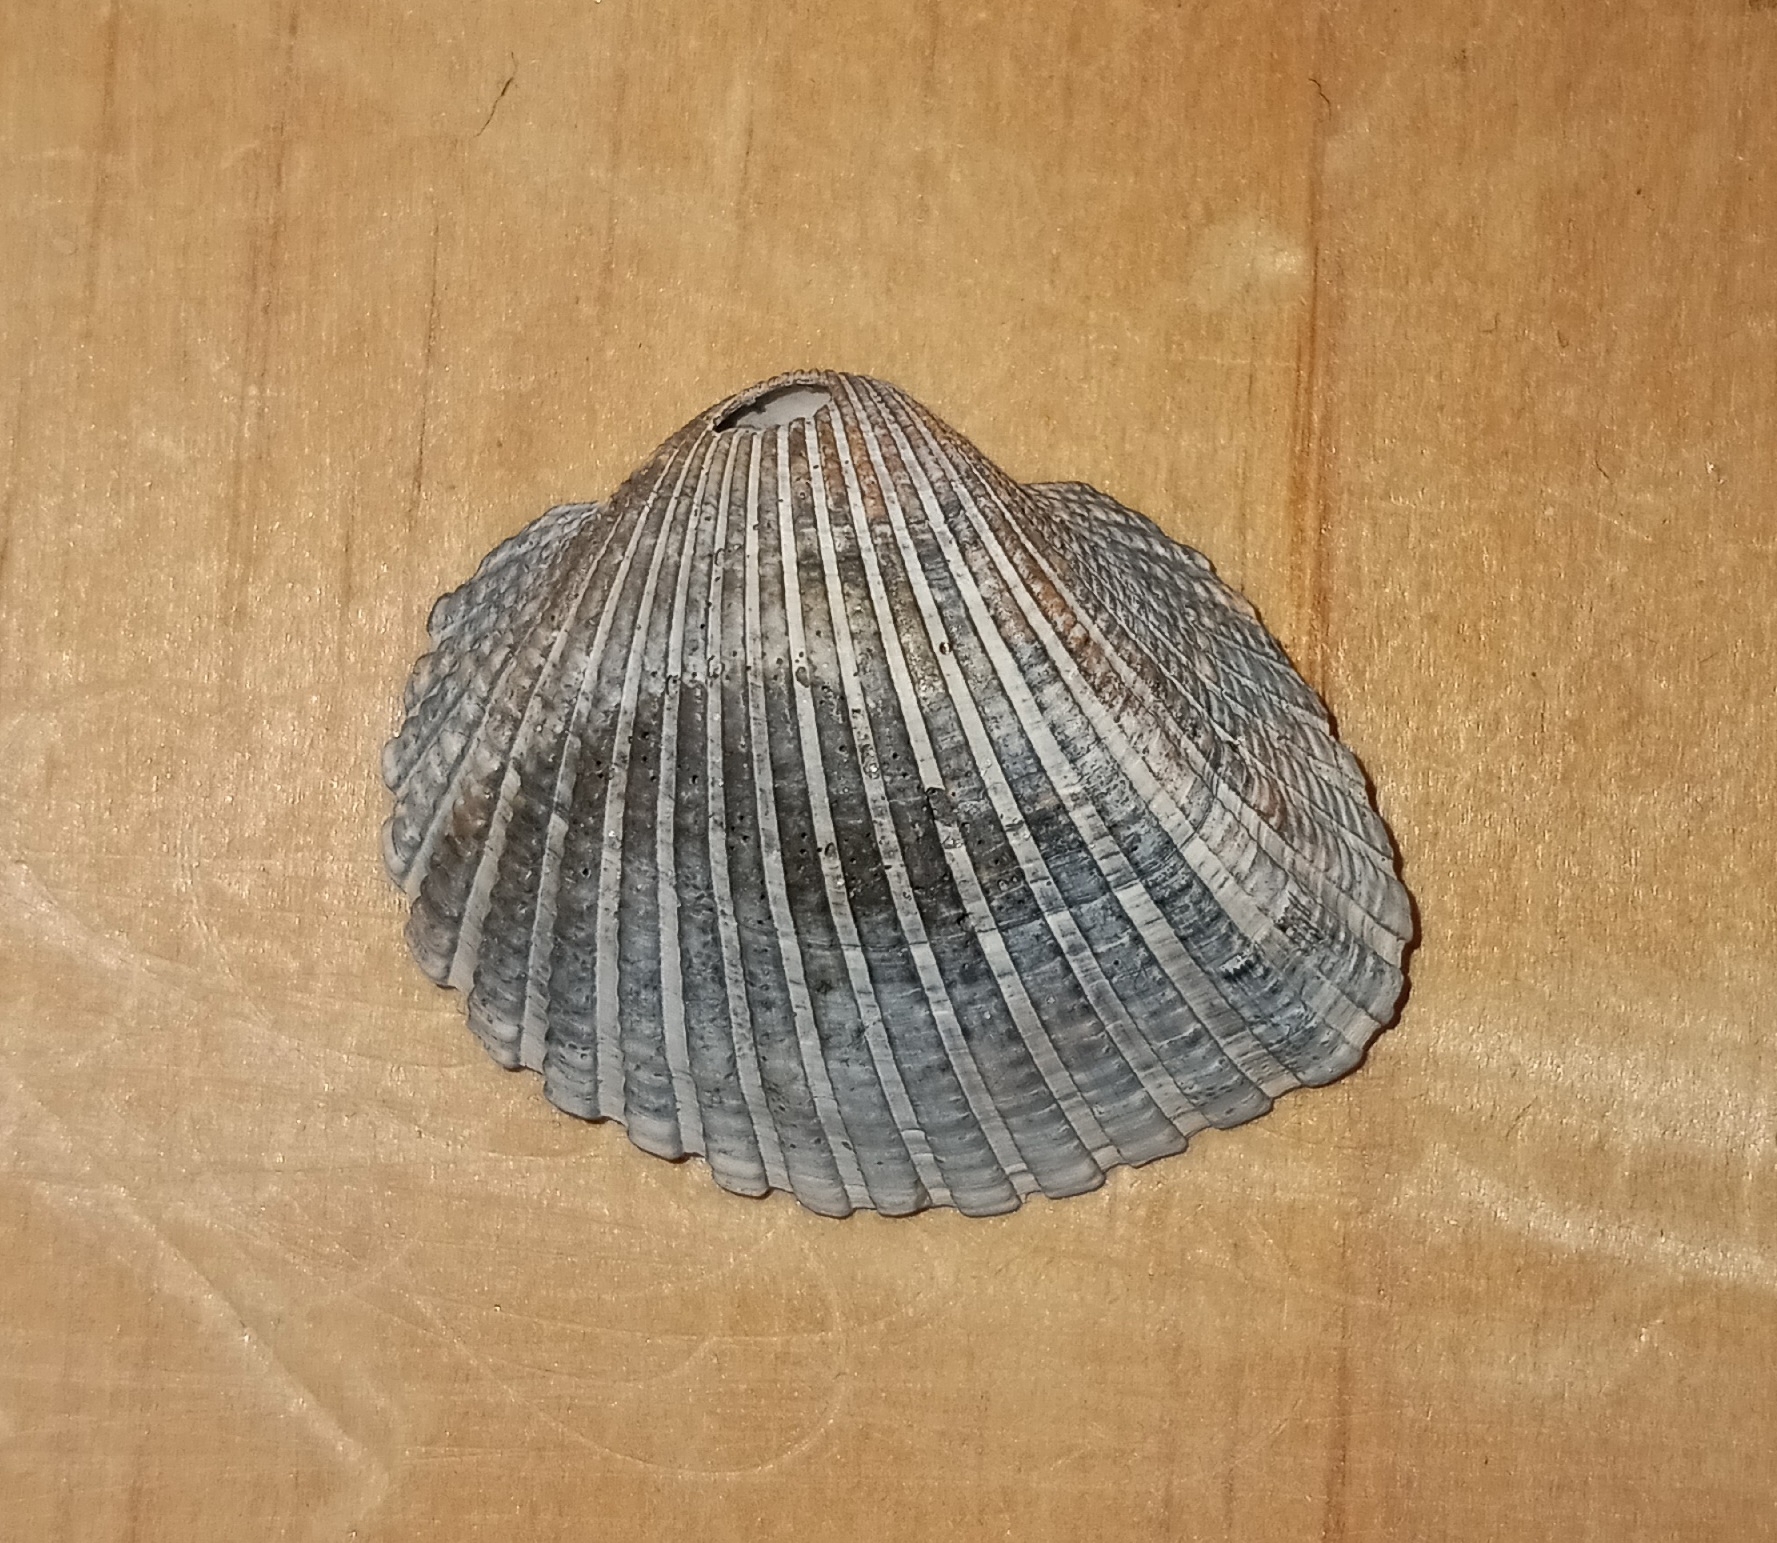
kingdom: Animalia
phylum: Mollusca
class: Bivalvia
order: Arcida
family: Arcidae
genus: Anadara
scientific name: Anadara brasiliana
